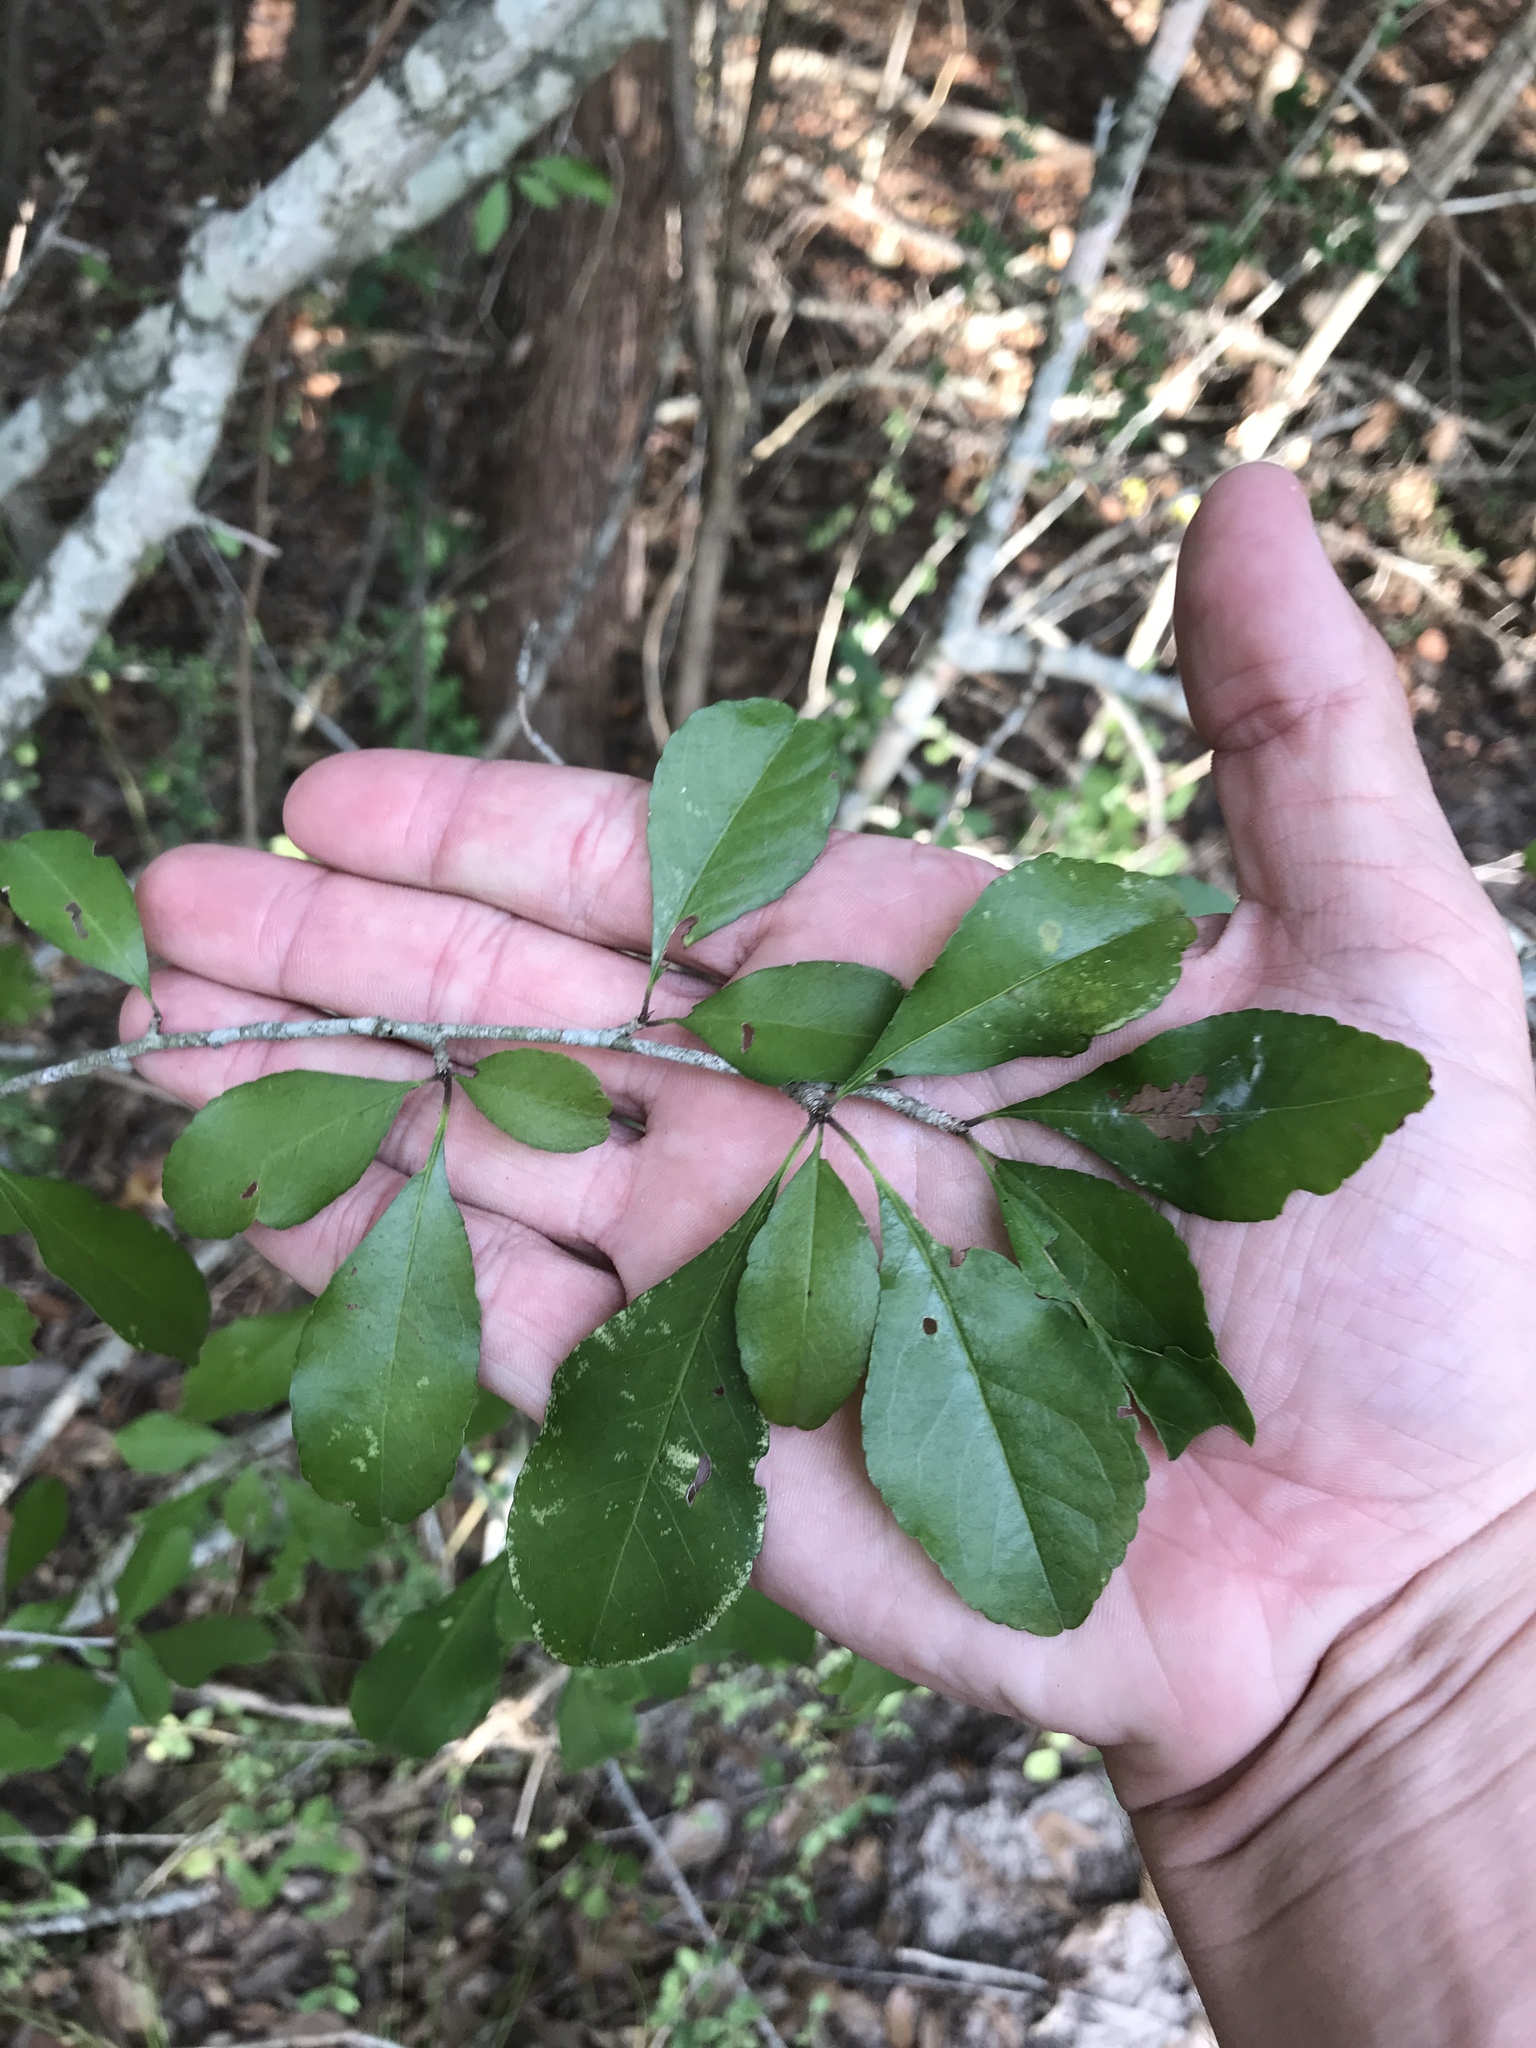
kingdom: Plantae
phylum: Tracheophyta
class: Magnoliopsida
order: Aquifoliales
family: Aquifoliaceae
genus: Ilex
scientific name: Ilex decidua
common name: Possum-haw
